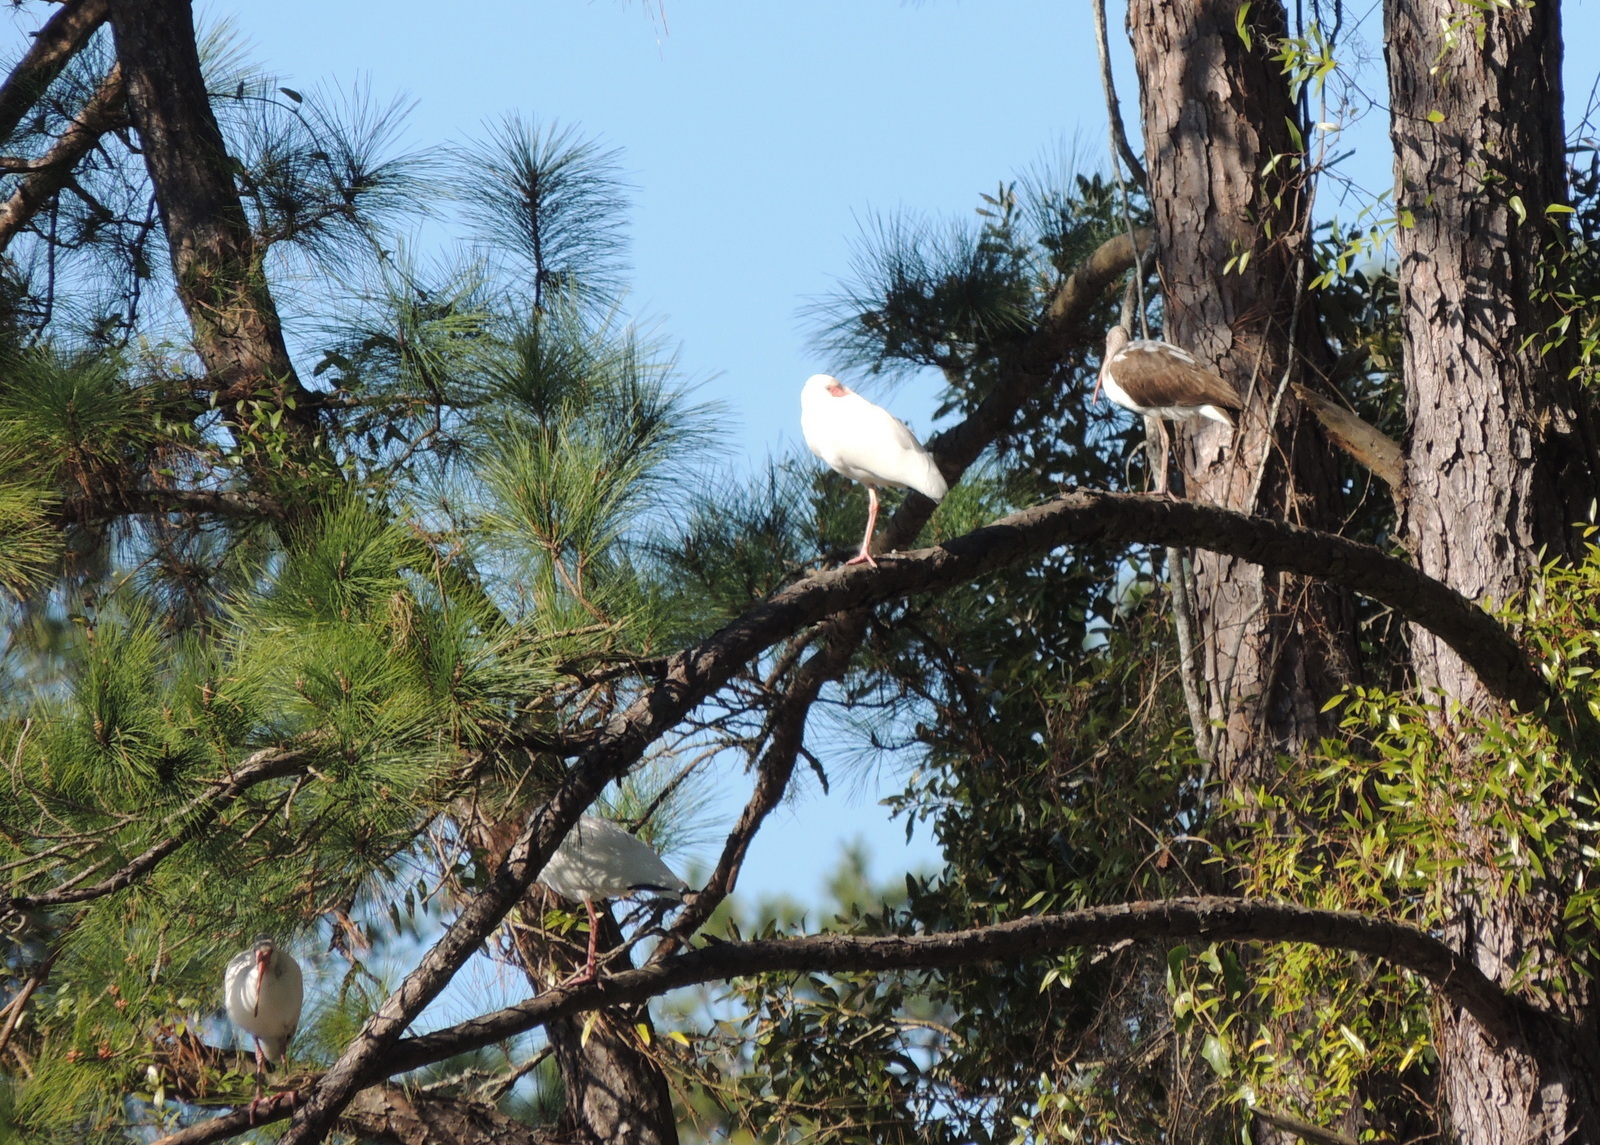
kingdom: Animalia
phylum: Chordata
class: Aves
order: Pelecaniformes
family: Threskiornithidae
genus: Eudocimus
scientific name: Eudocimus albus
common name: White ibis
